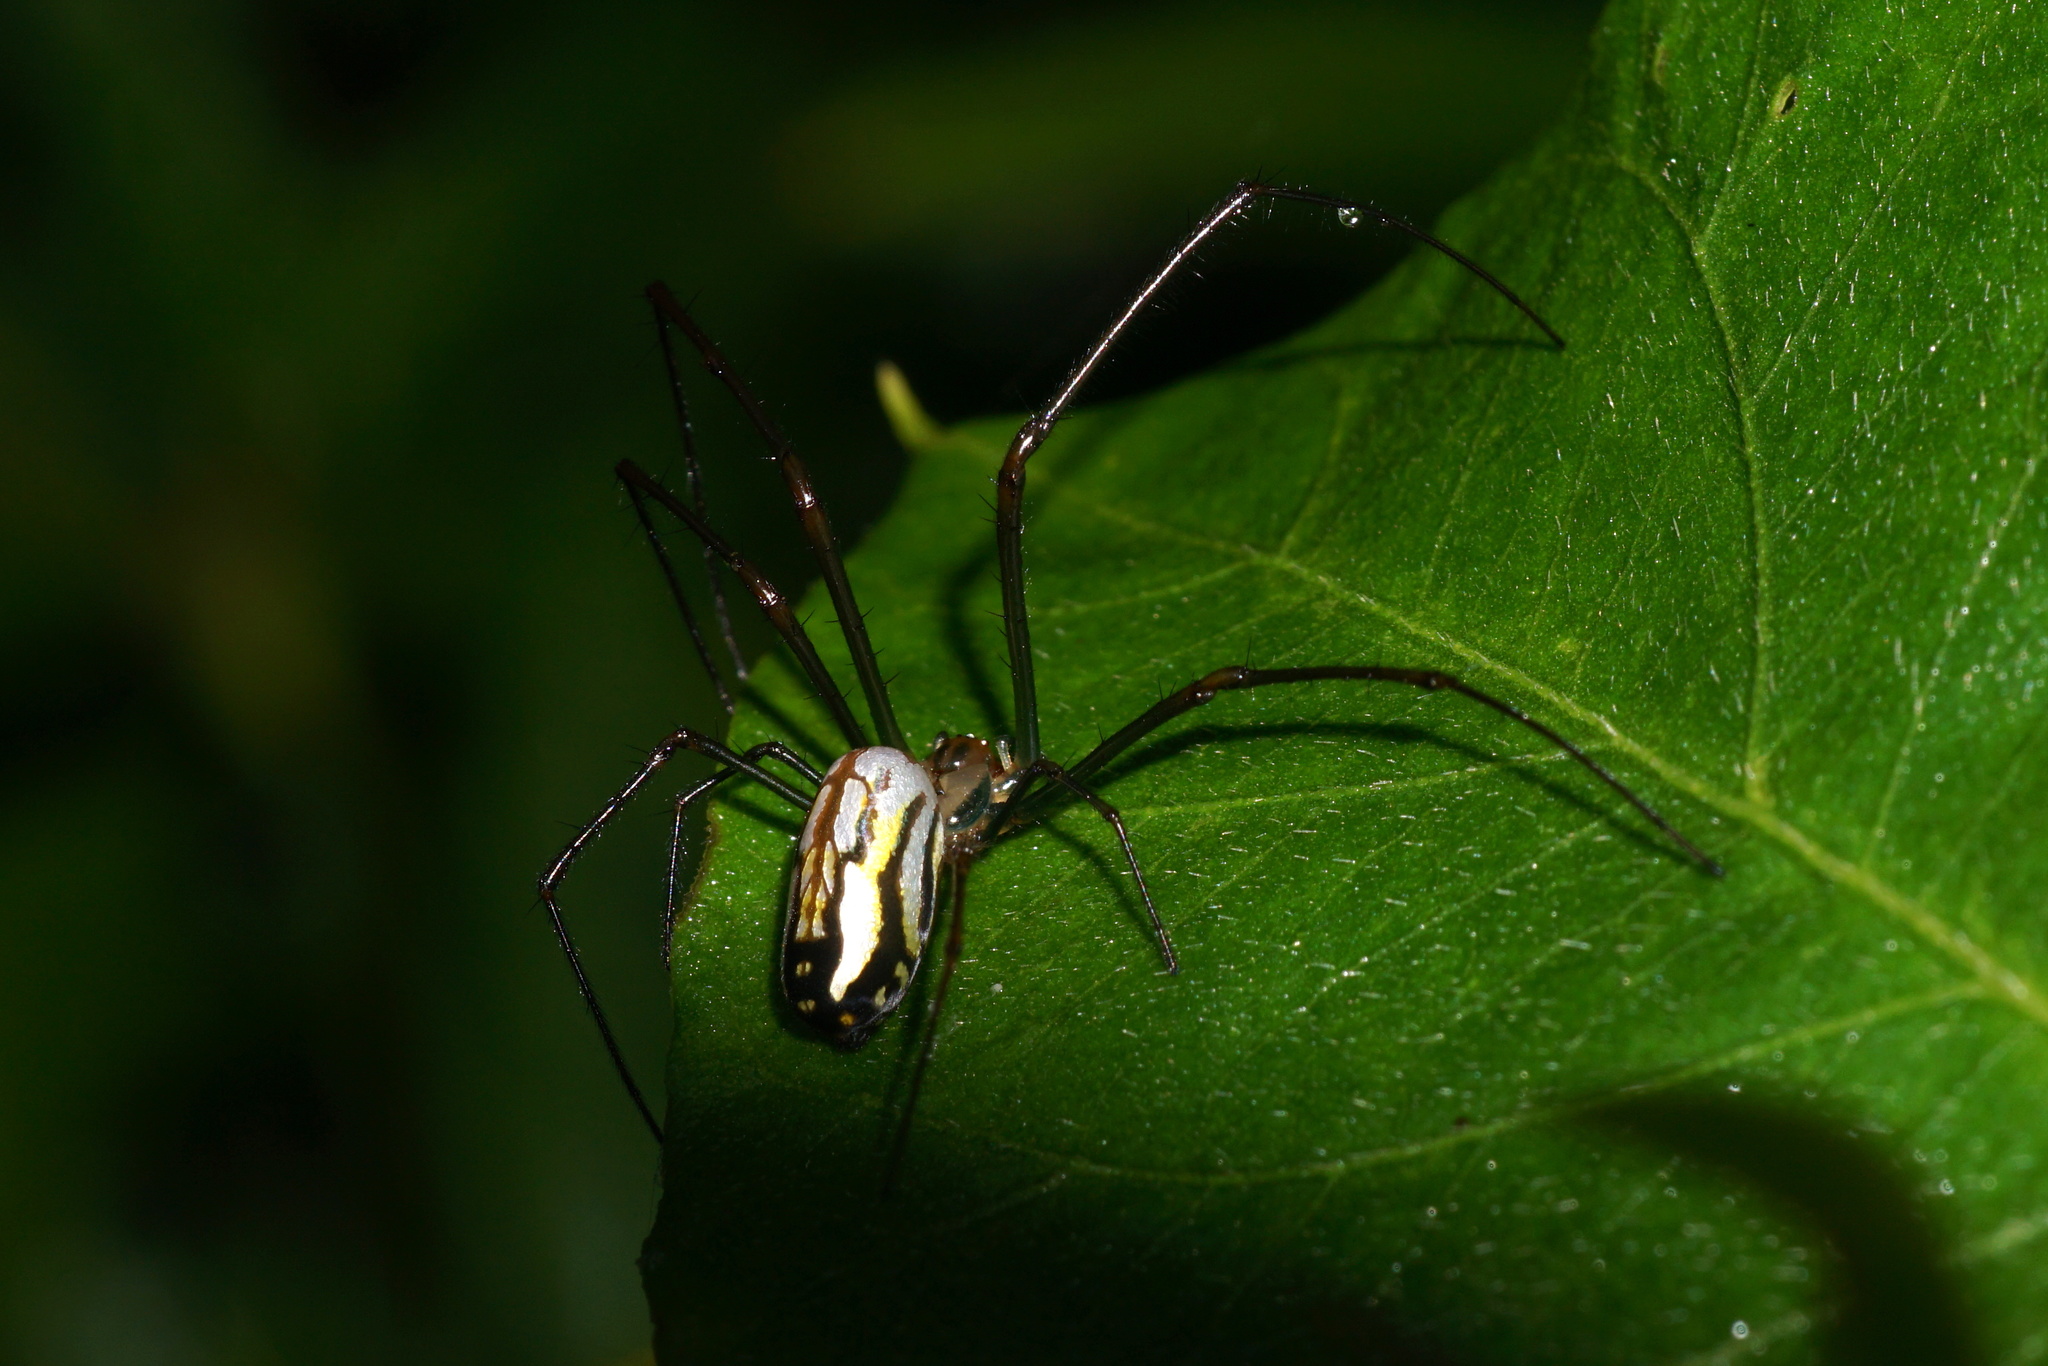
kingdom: Animalia
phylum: Arthropoda
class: Arachnida
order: Araneae
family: Tetragnathidae
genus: Leucauge
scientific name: Leucauge argyra
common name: Longjawed orb weavers
